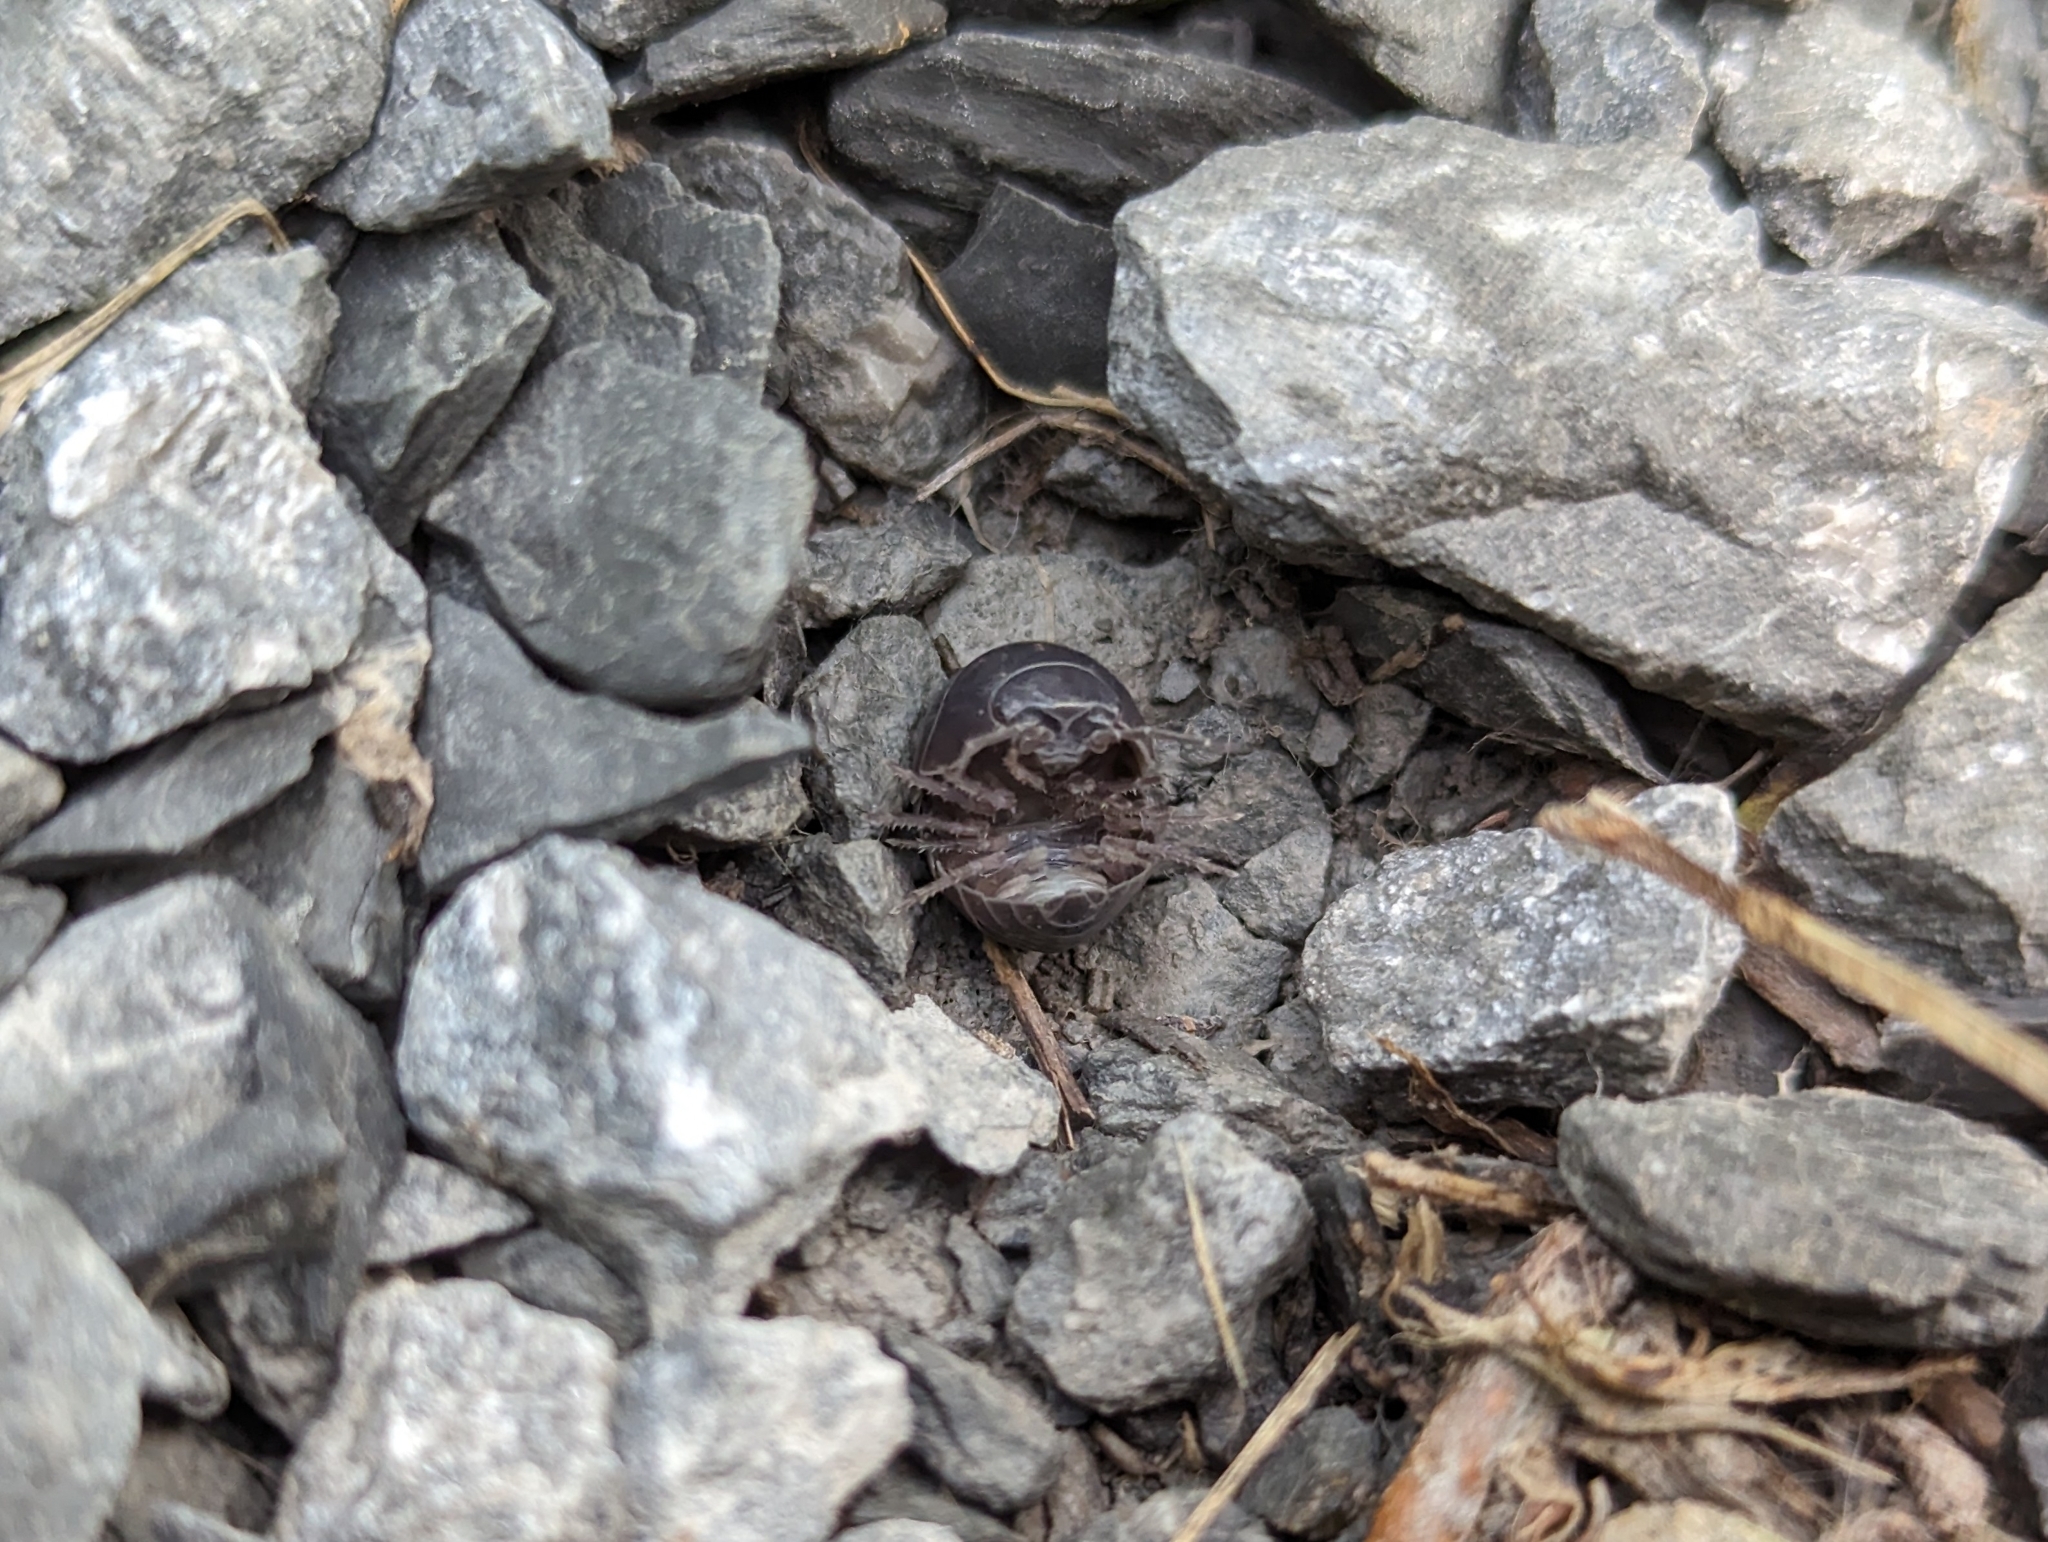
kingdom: Animalia
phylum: Arthropoda
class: Malacostraca
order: Isopoda
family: Armadillidiidae
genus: Armadillidium
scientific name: Armadillidium vulgare
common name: Common pill woodlouse
